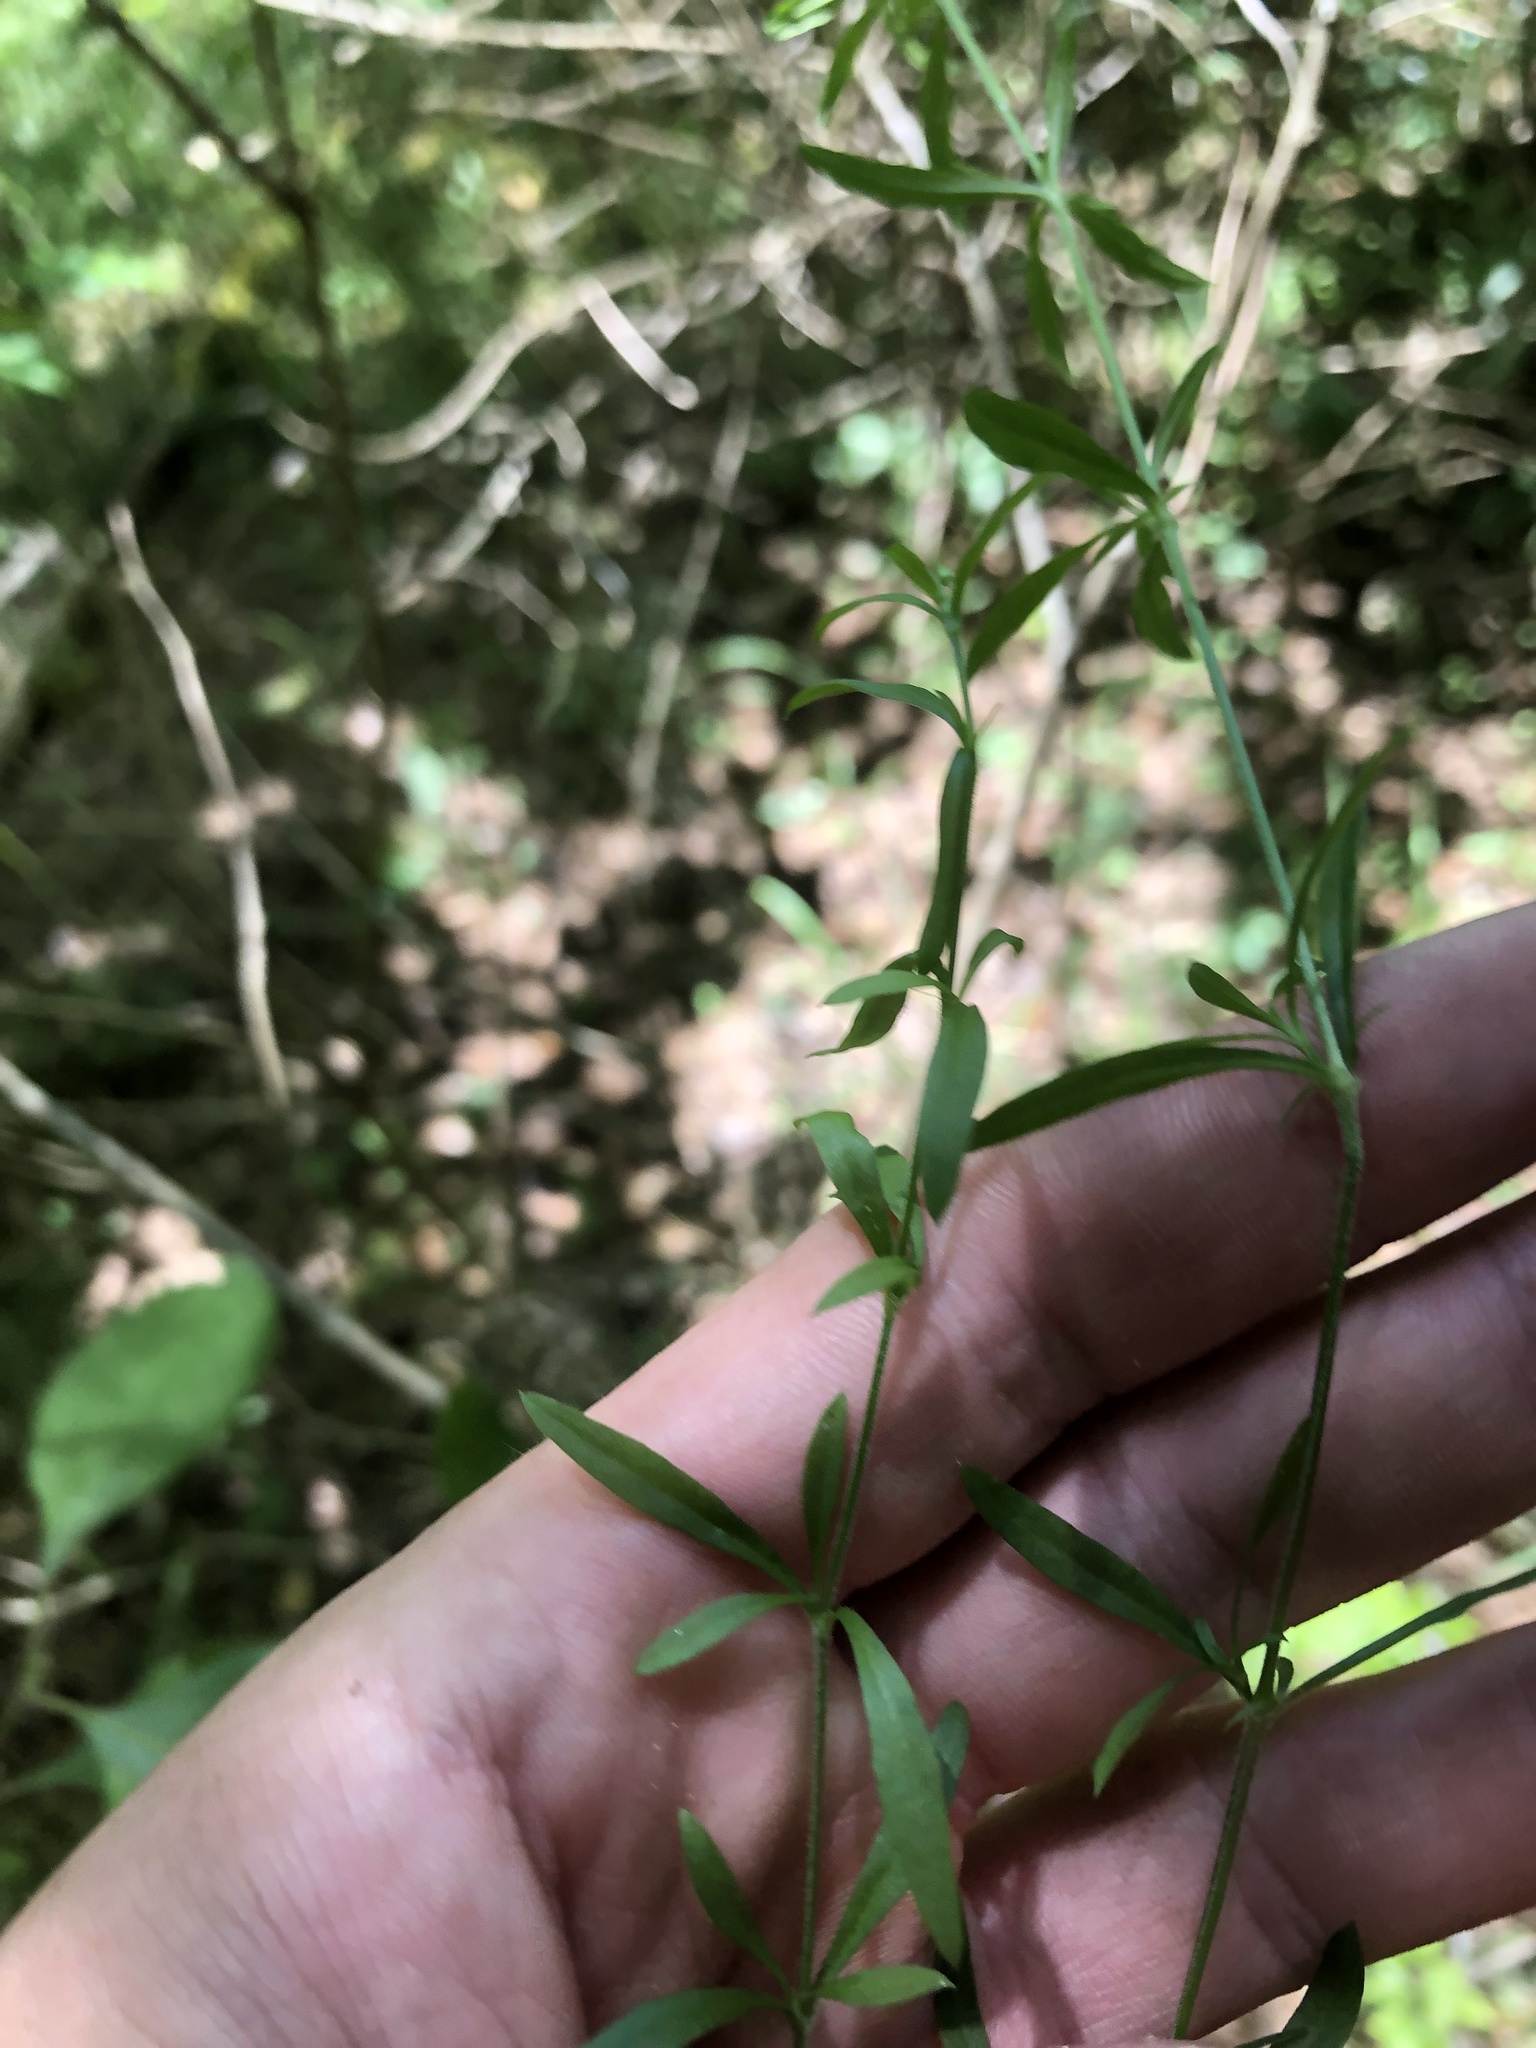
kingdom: Plantae
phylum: Tracheophyta
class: Magnoliopsida
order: Caryophyllales
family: Caryophyllaceae
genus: Arenaria
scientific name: Arenaria lanuginosa
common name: Spread sandwort
